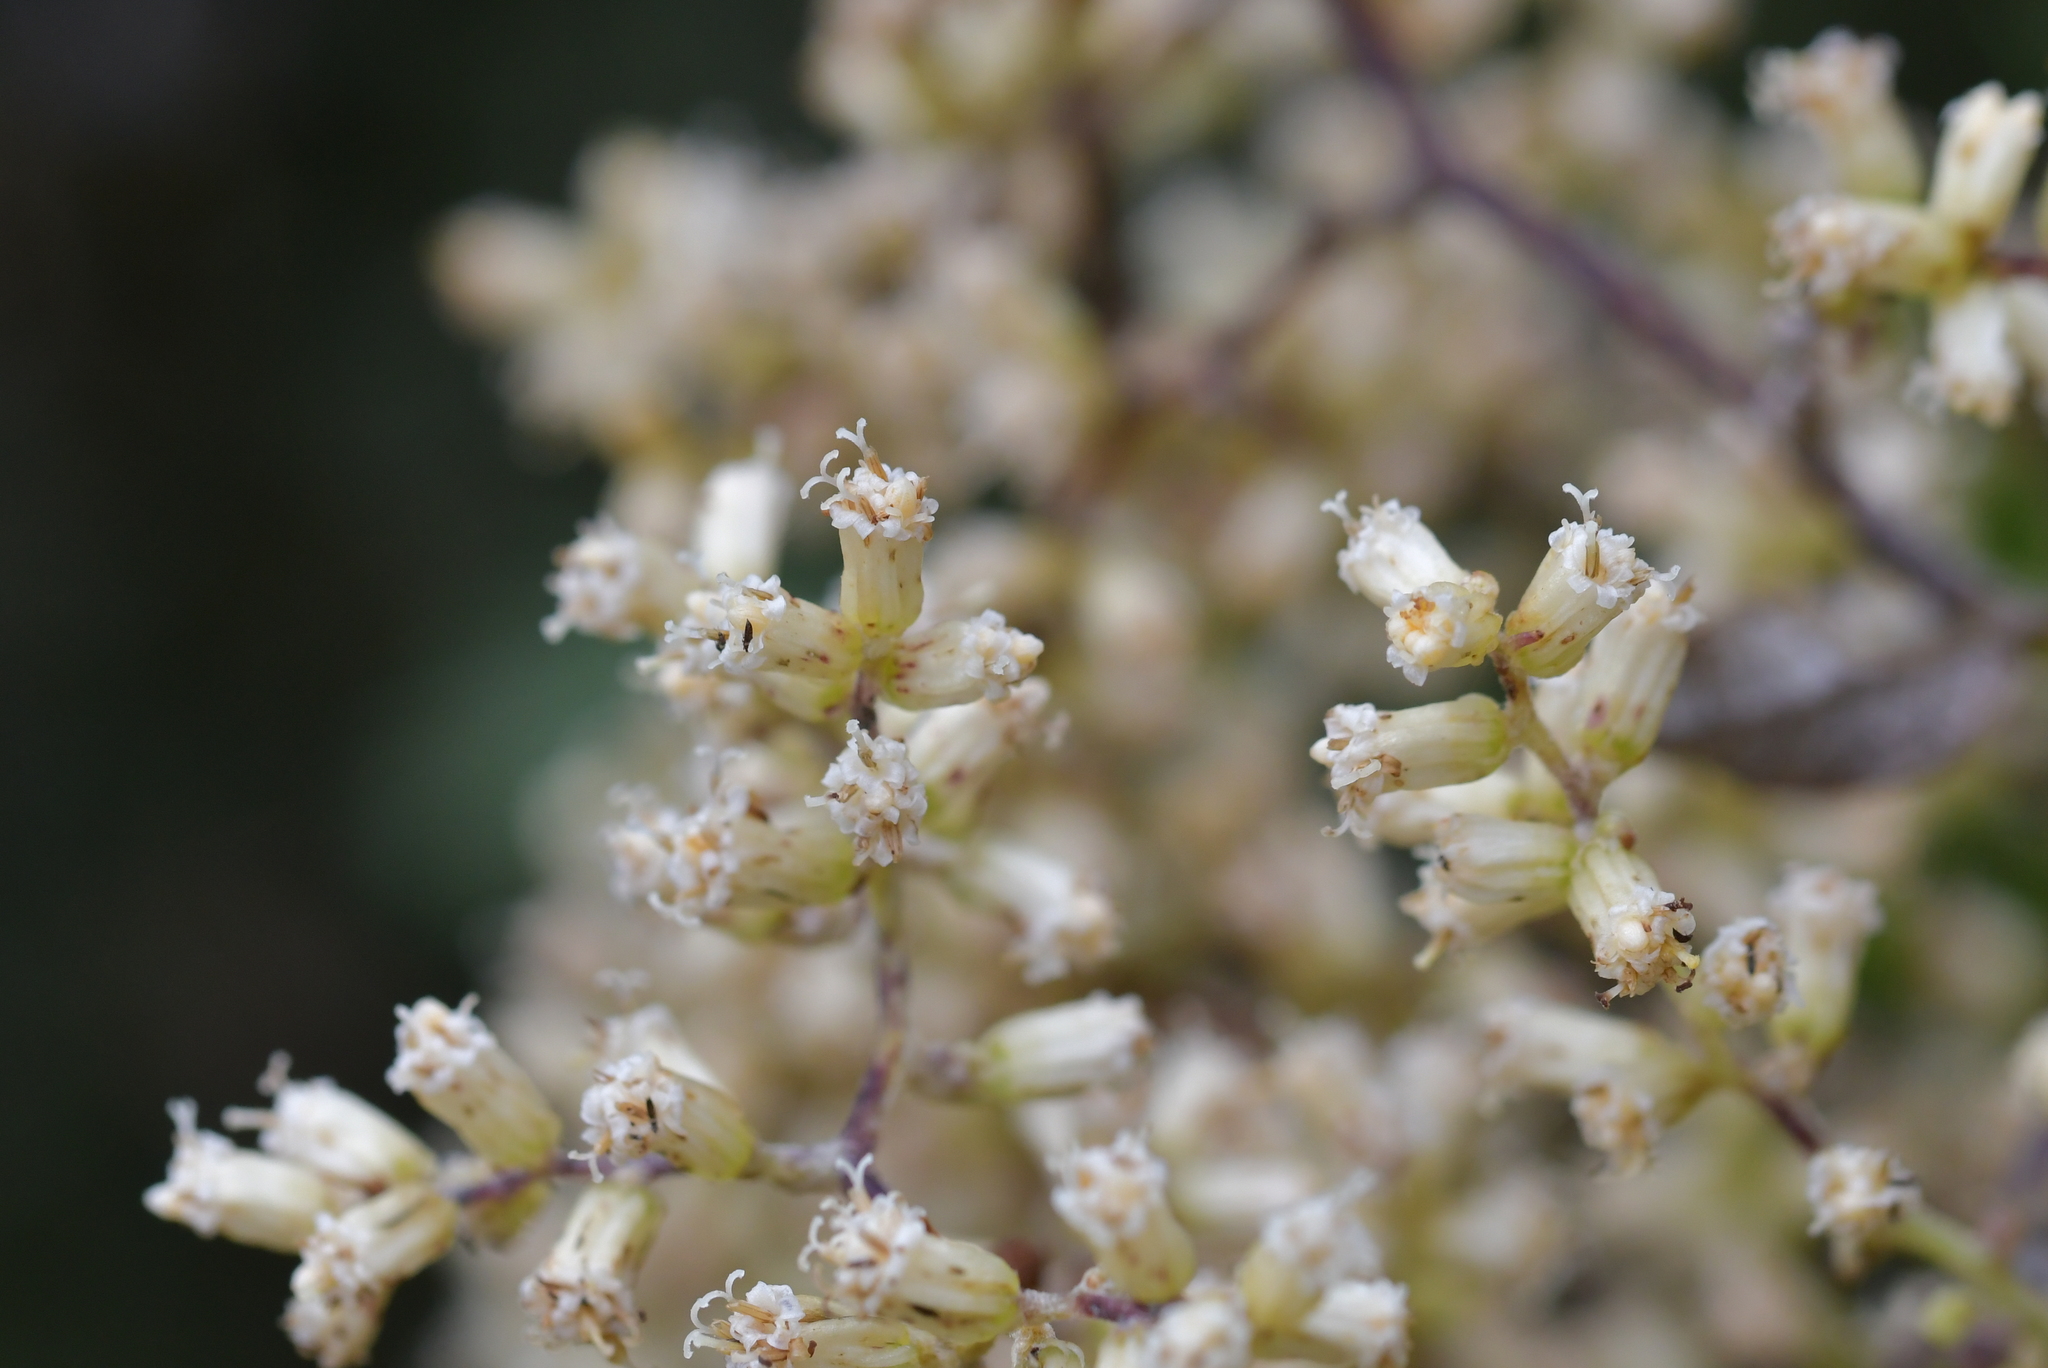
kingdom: Plantae
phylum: Tracheophyta
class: Magnoliopsida
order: Asterales
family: Asteraceae
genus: Brachyglottis
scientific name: Brachyglottis repanda
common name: Hedge ragwort
